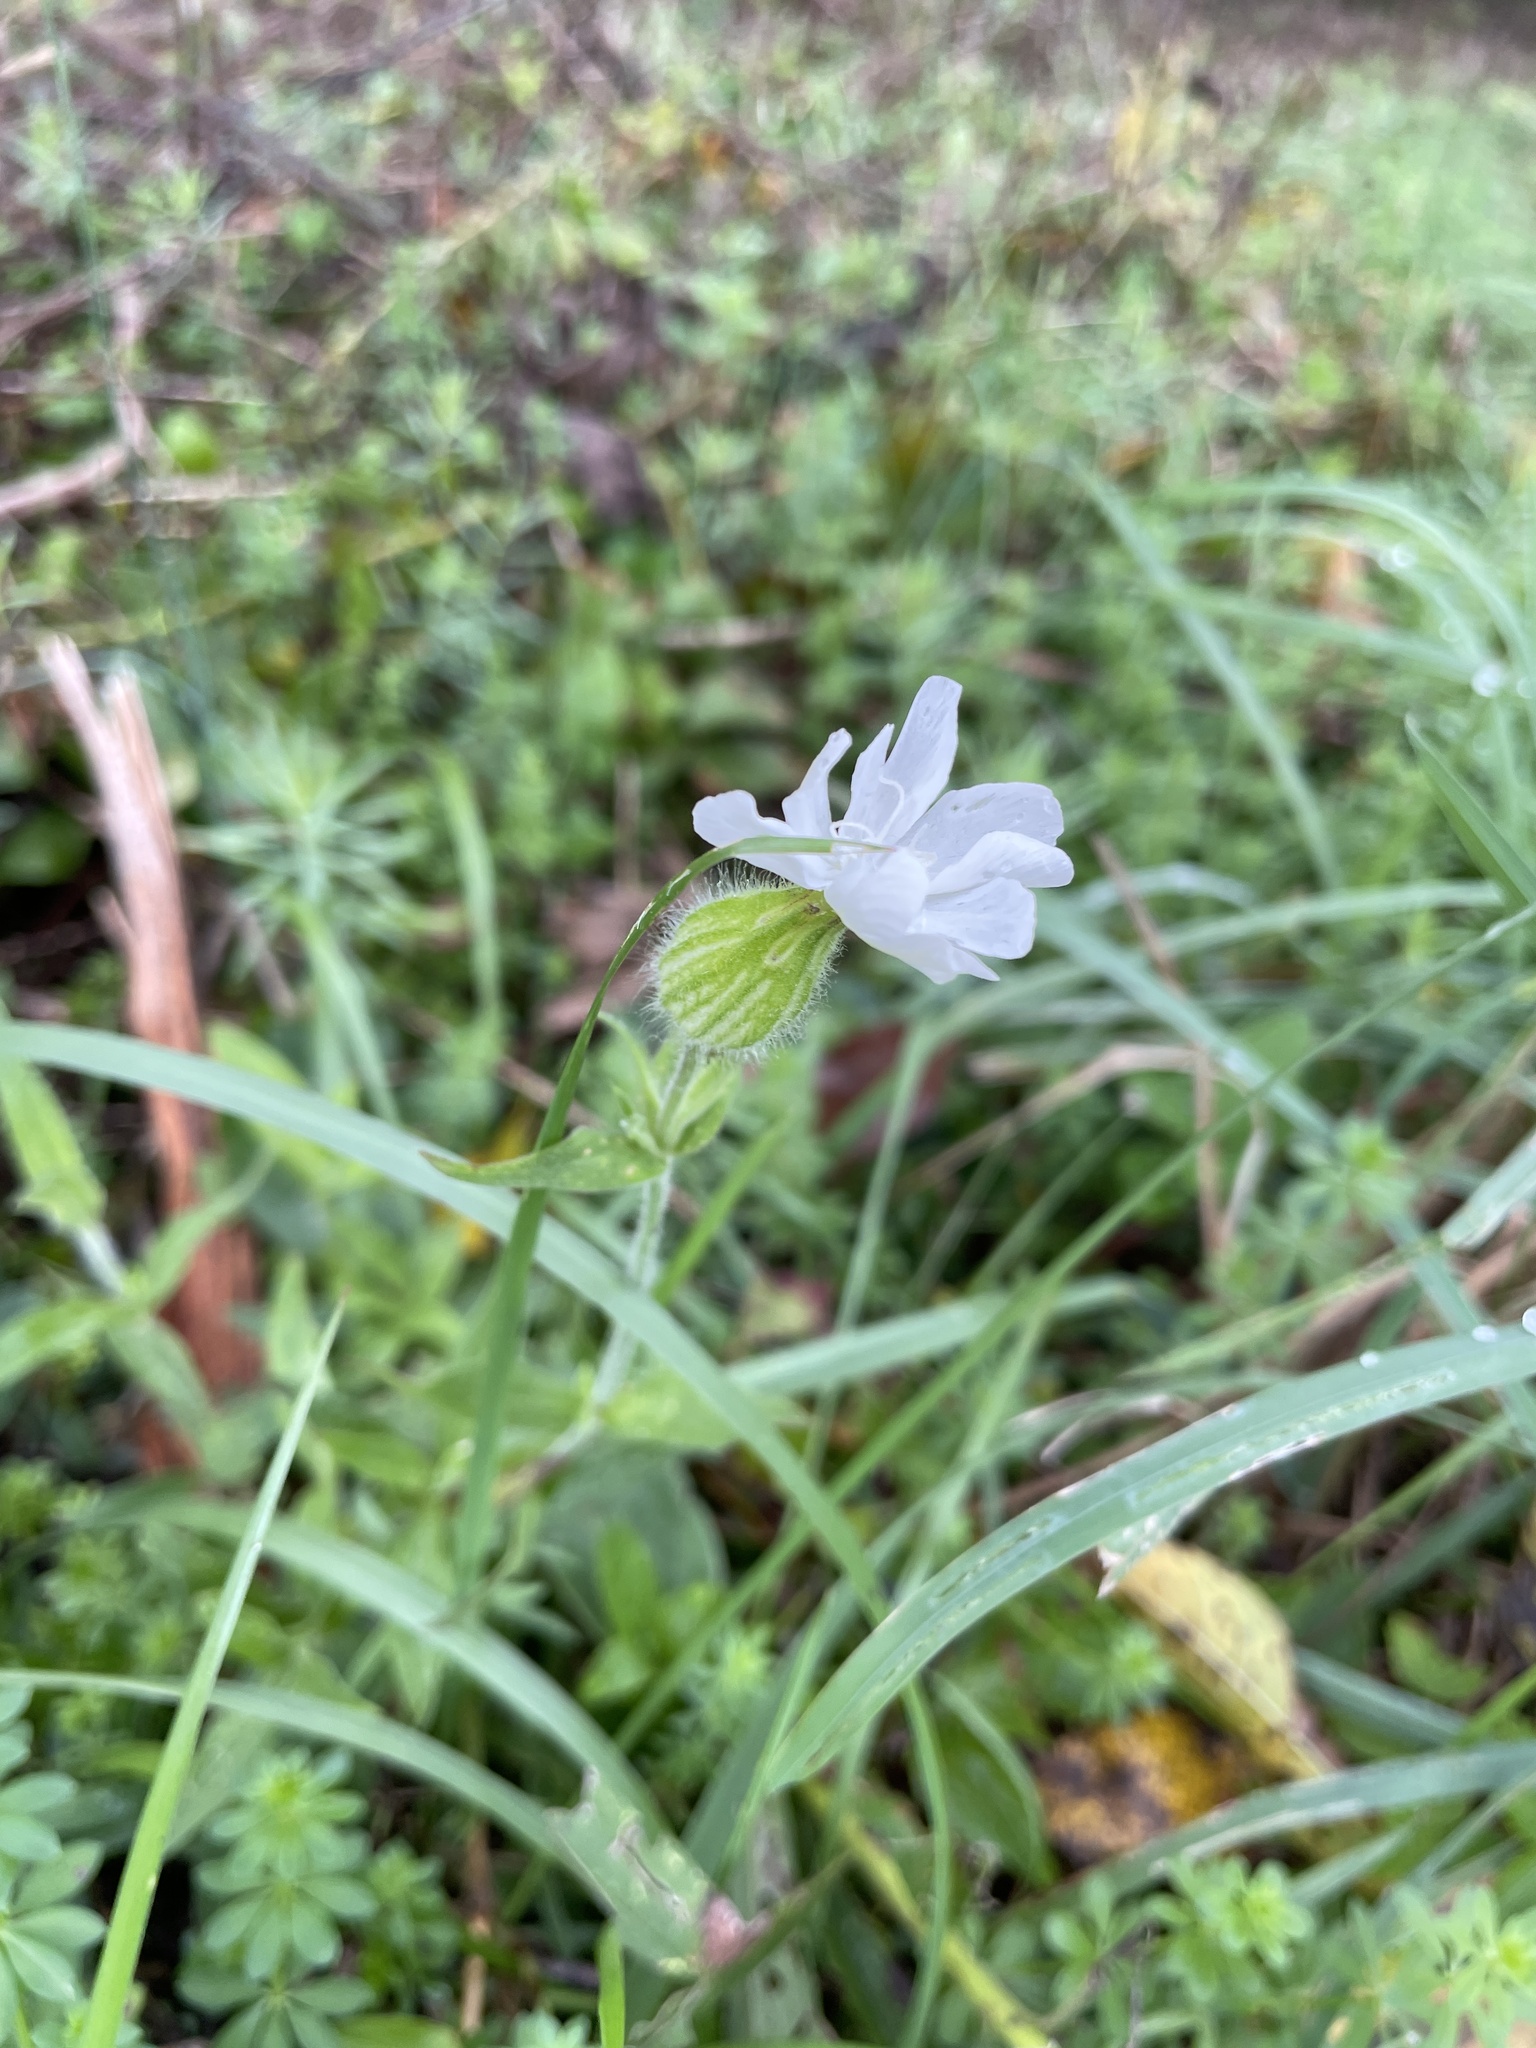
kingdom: Plantae
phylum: Tracheophyta
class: Magnoliopsida
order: Caryophyllales
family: Caryophyllaceae
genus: Silene
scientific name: Silene latifolia
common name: White campion
